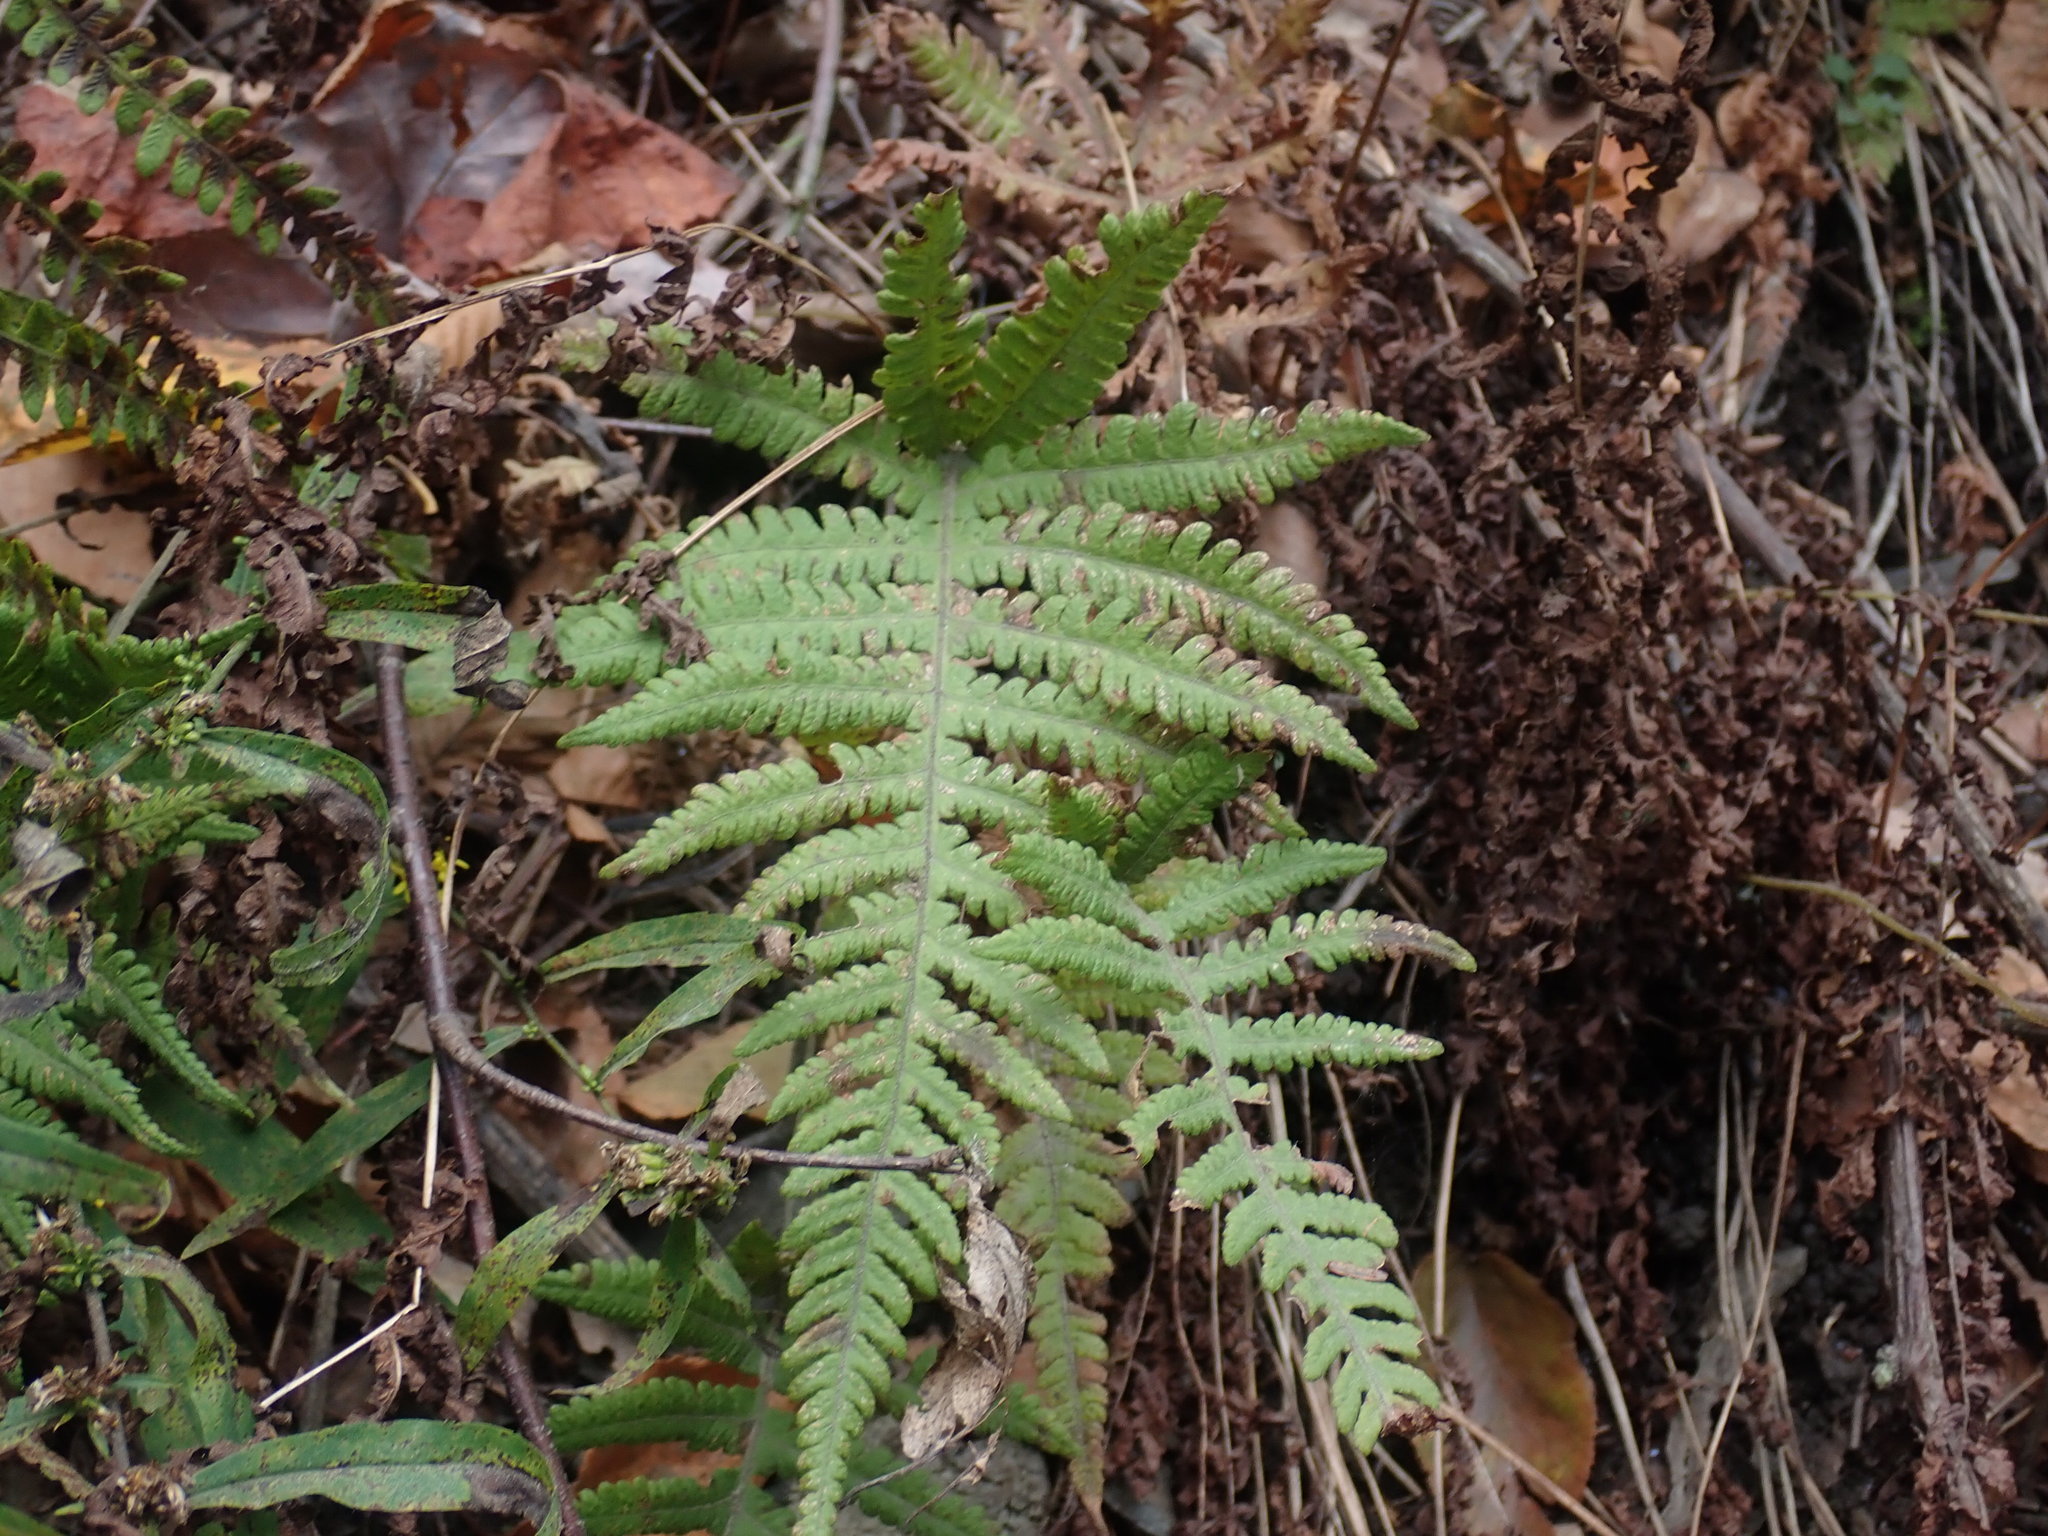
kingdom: Plantae
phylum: Tracheophyta
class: Polypodiopsida
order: Polypodiales
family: Thelypteridaceae
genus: Phegopteris
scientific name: Phegopteris connectilis
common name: Beech fern
